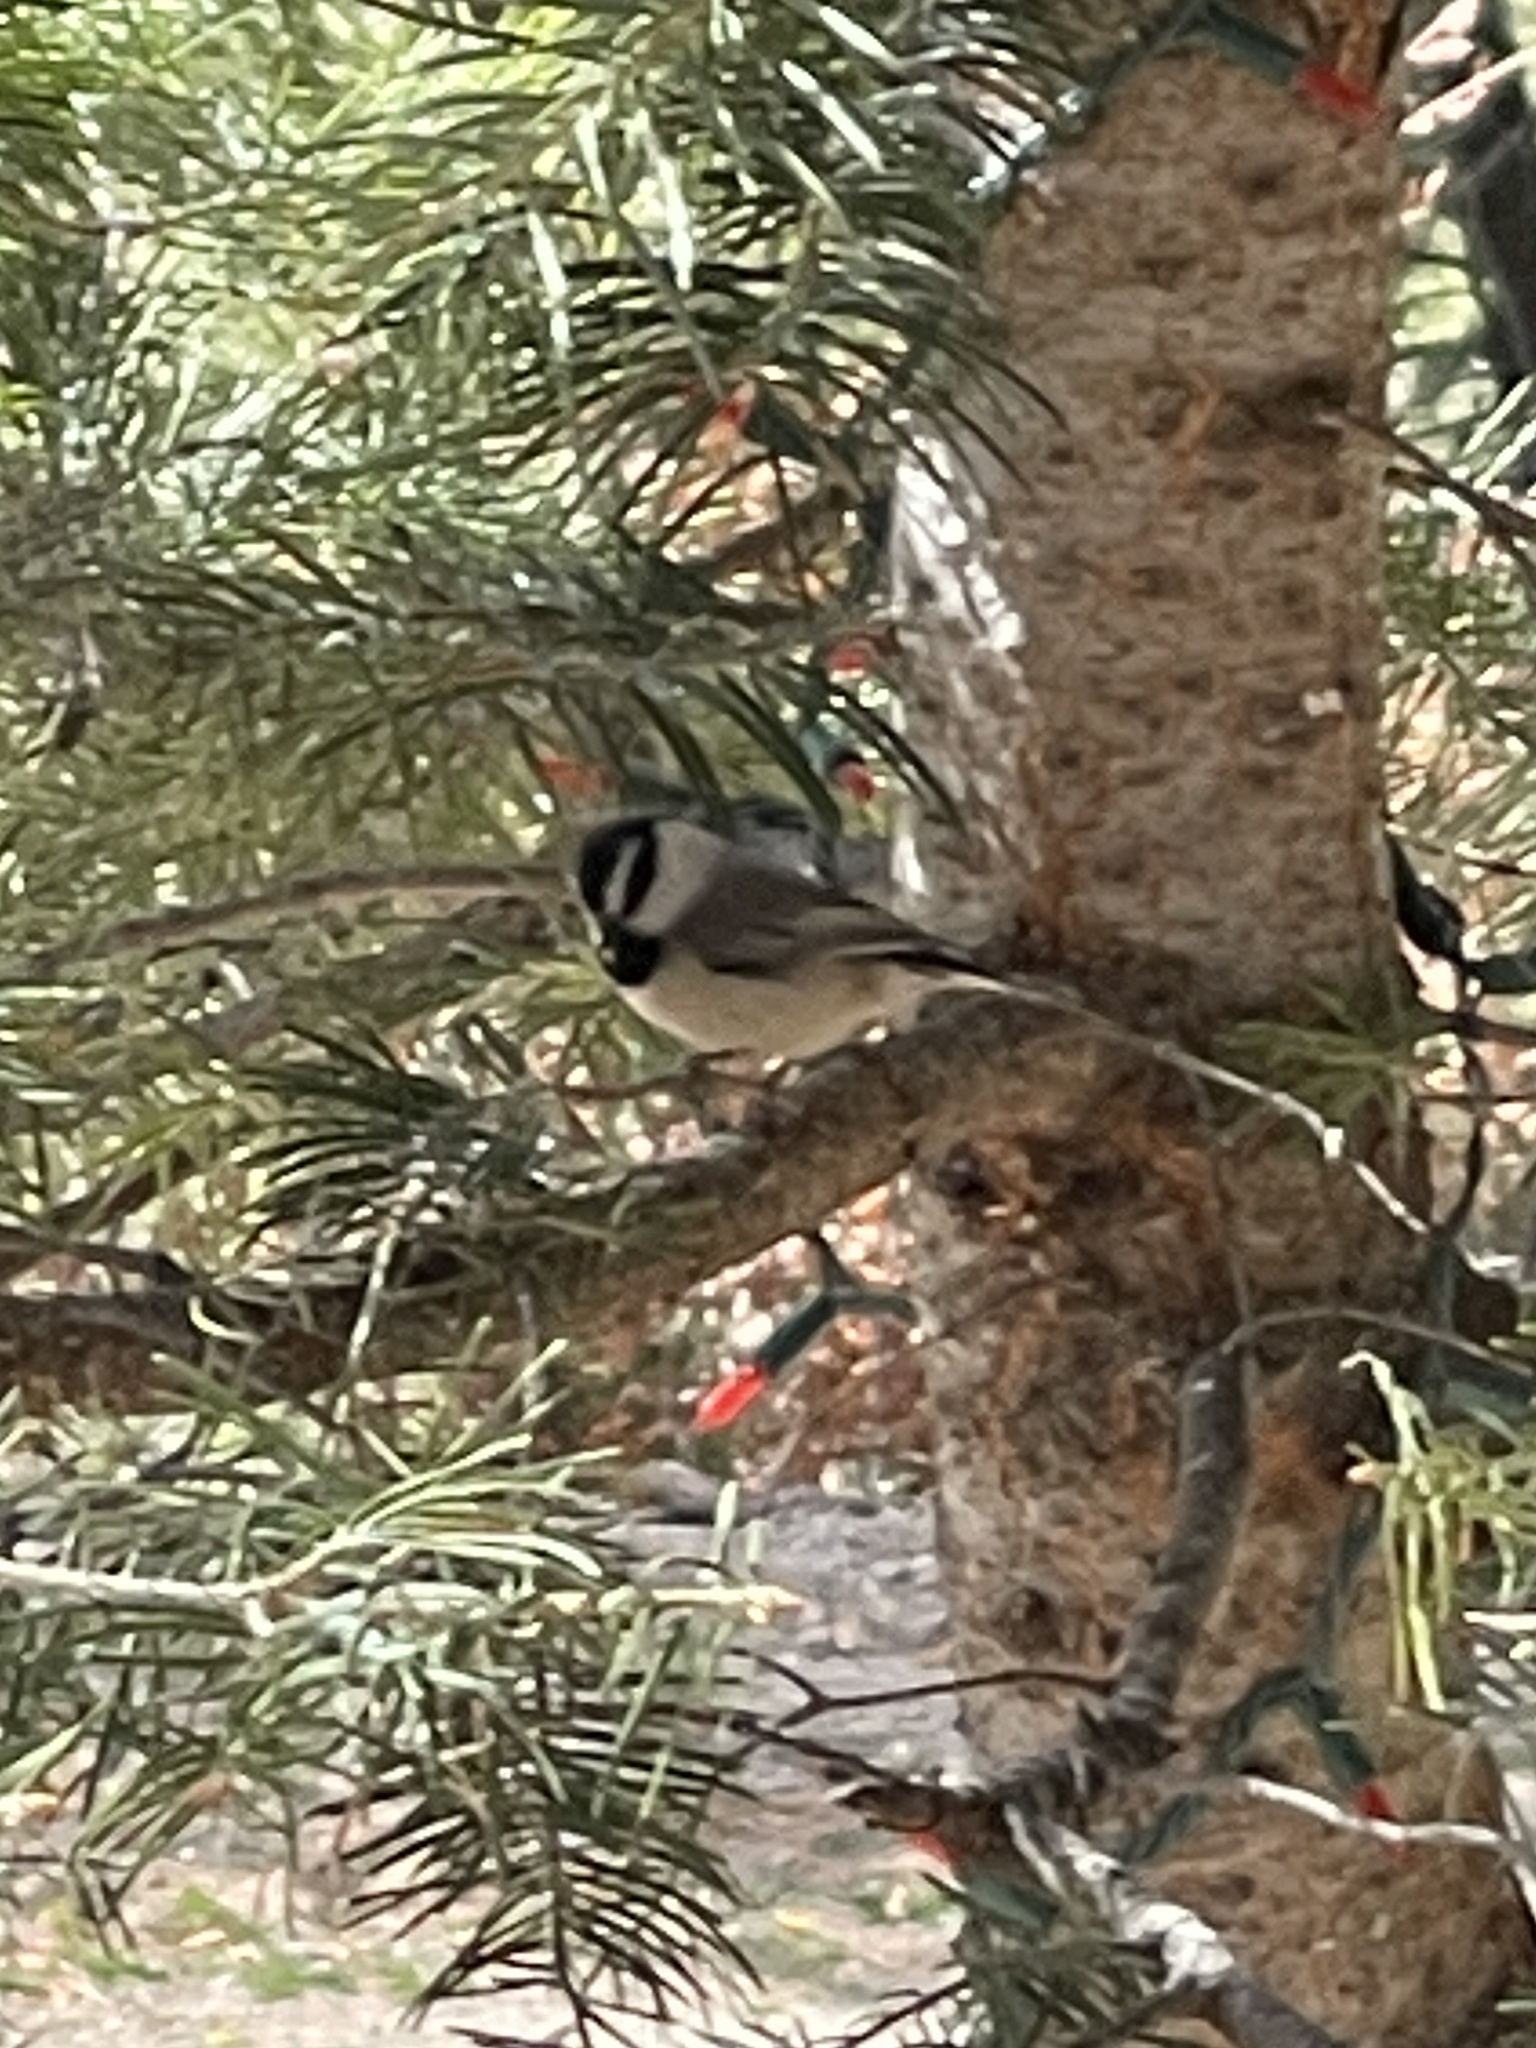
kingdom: Animalia
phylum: Chordata
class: Aves
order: Passeriformes
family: Paridae
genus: Poecile
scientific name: Poecile gambeli
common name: Mountain chickadee
